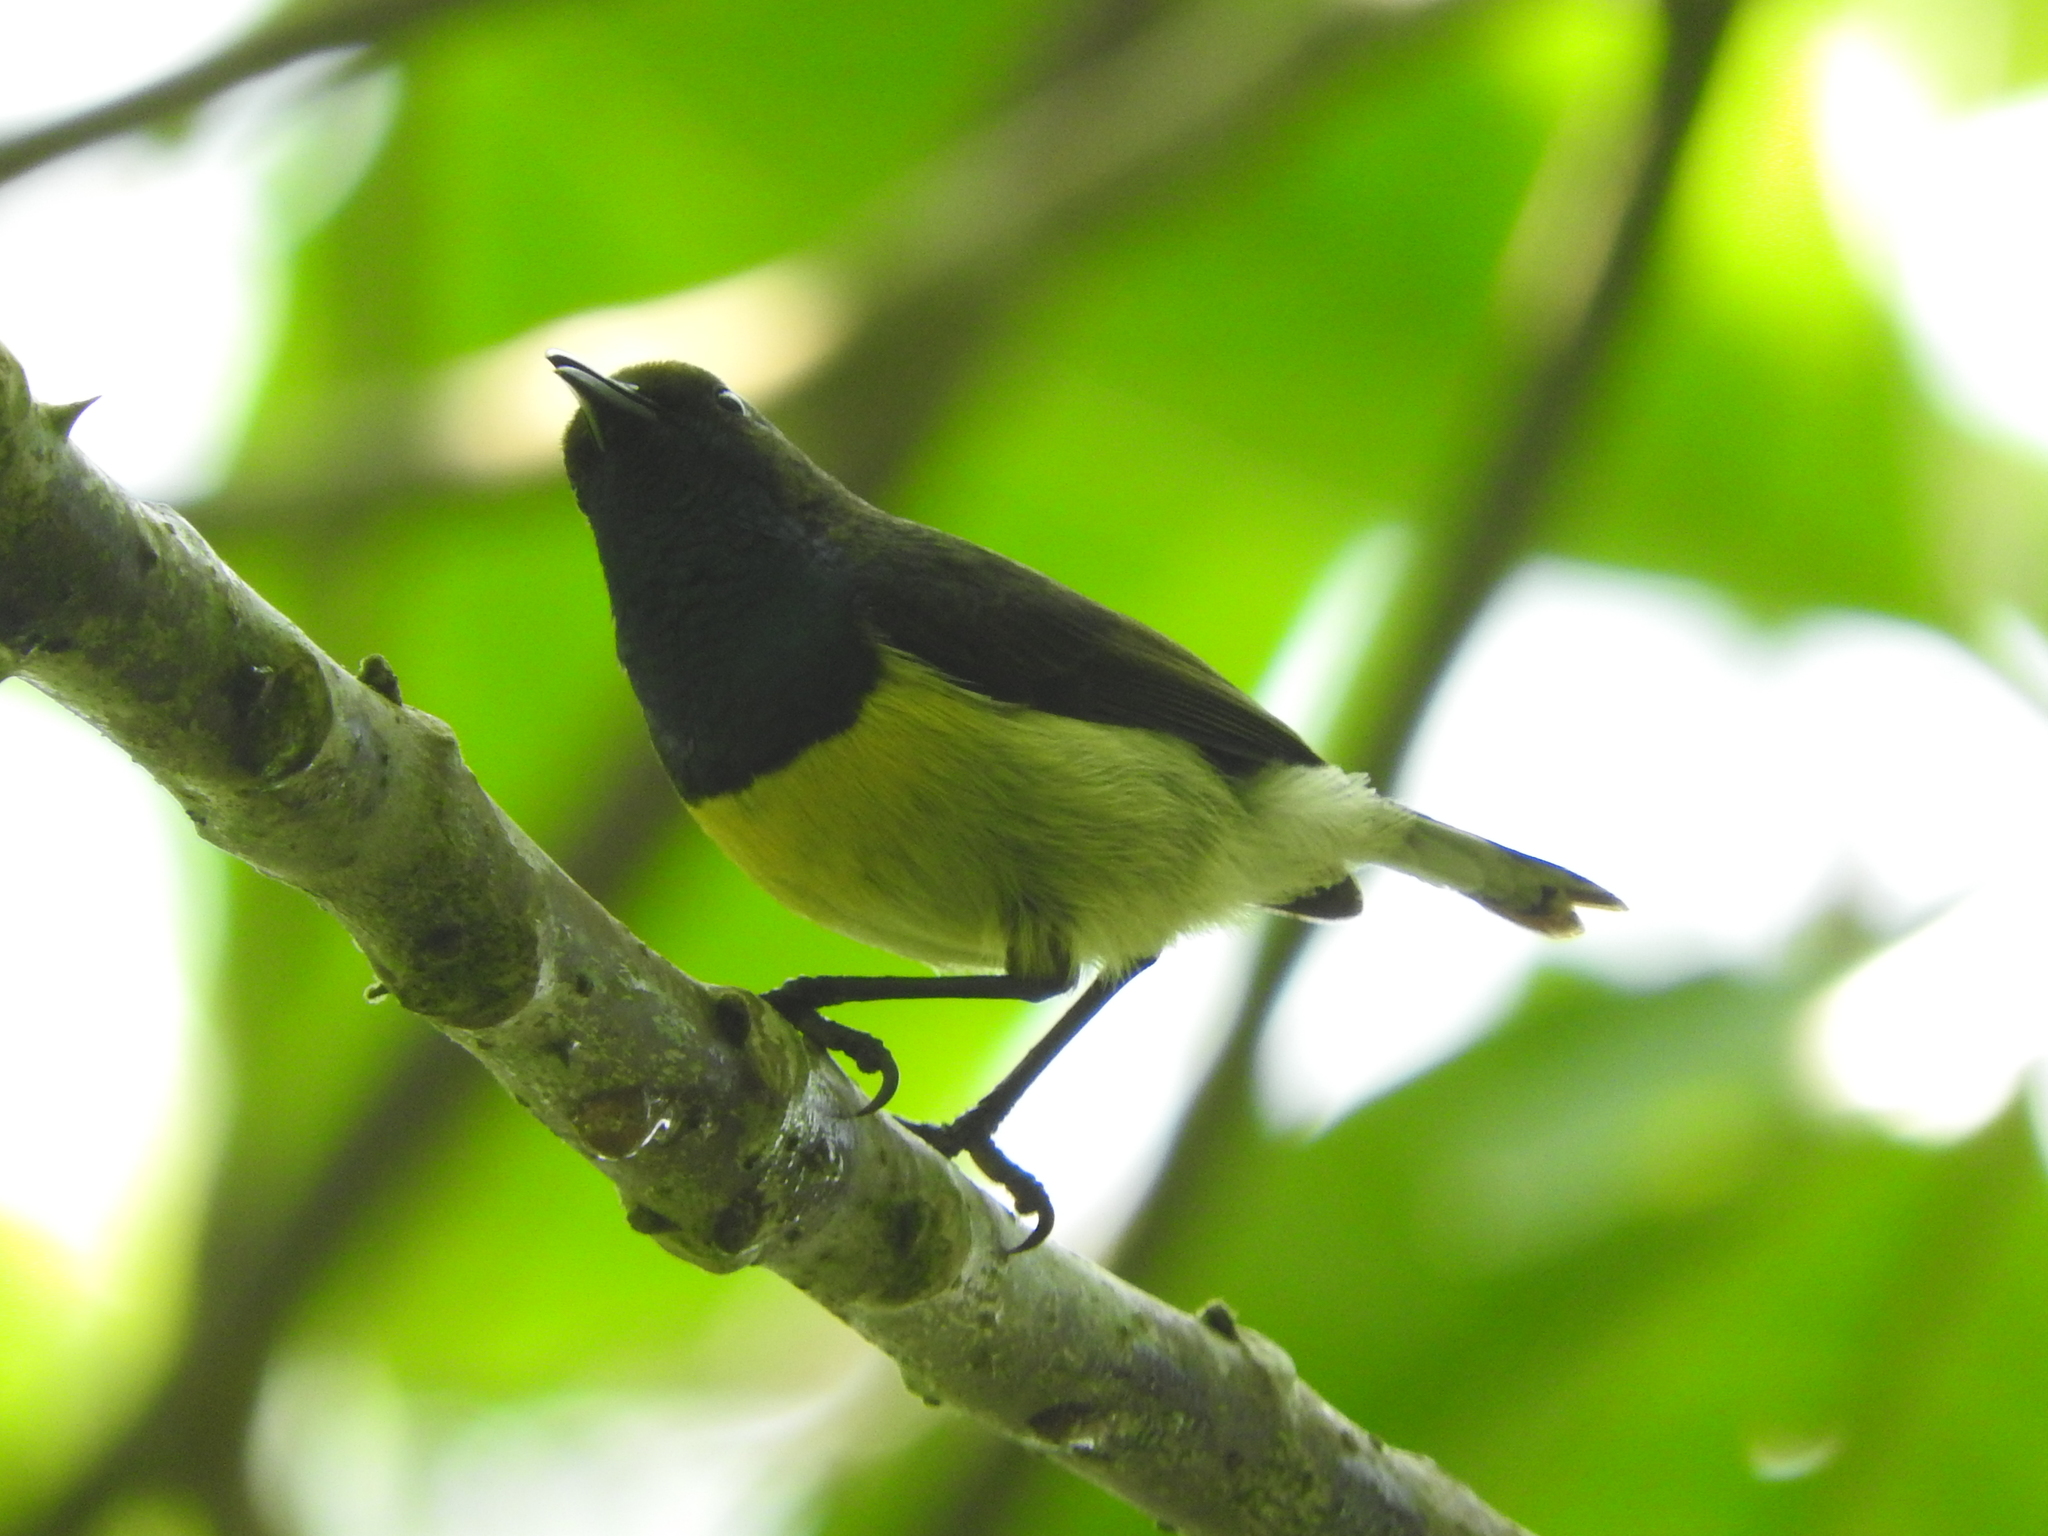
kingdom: Animalia
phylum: Chordata
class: Aves
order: Passeriformes
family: Nectariniidae
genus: Anabathmis
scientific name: Anabathmis newtonii
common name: Newton's sunbird
